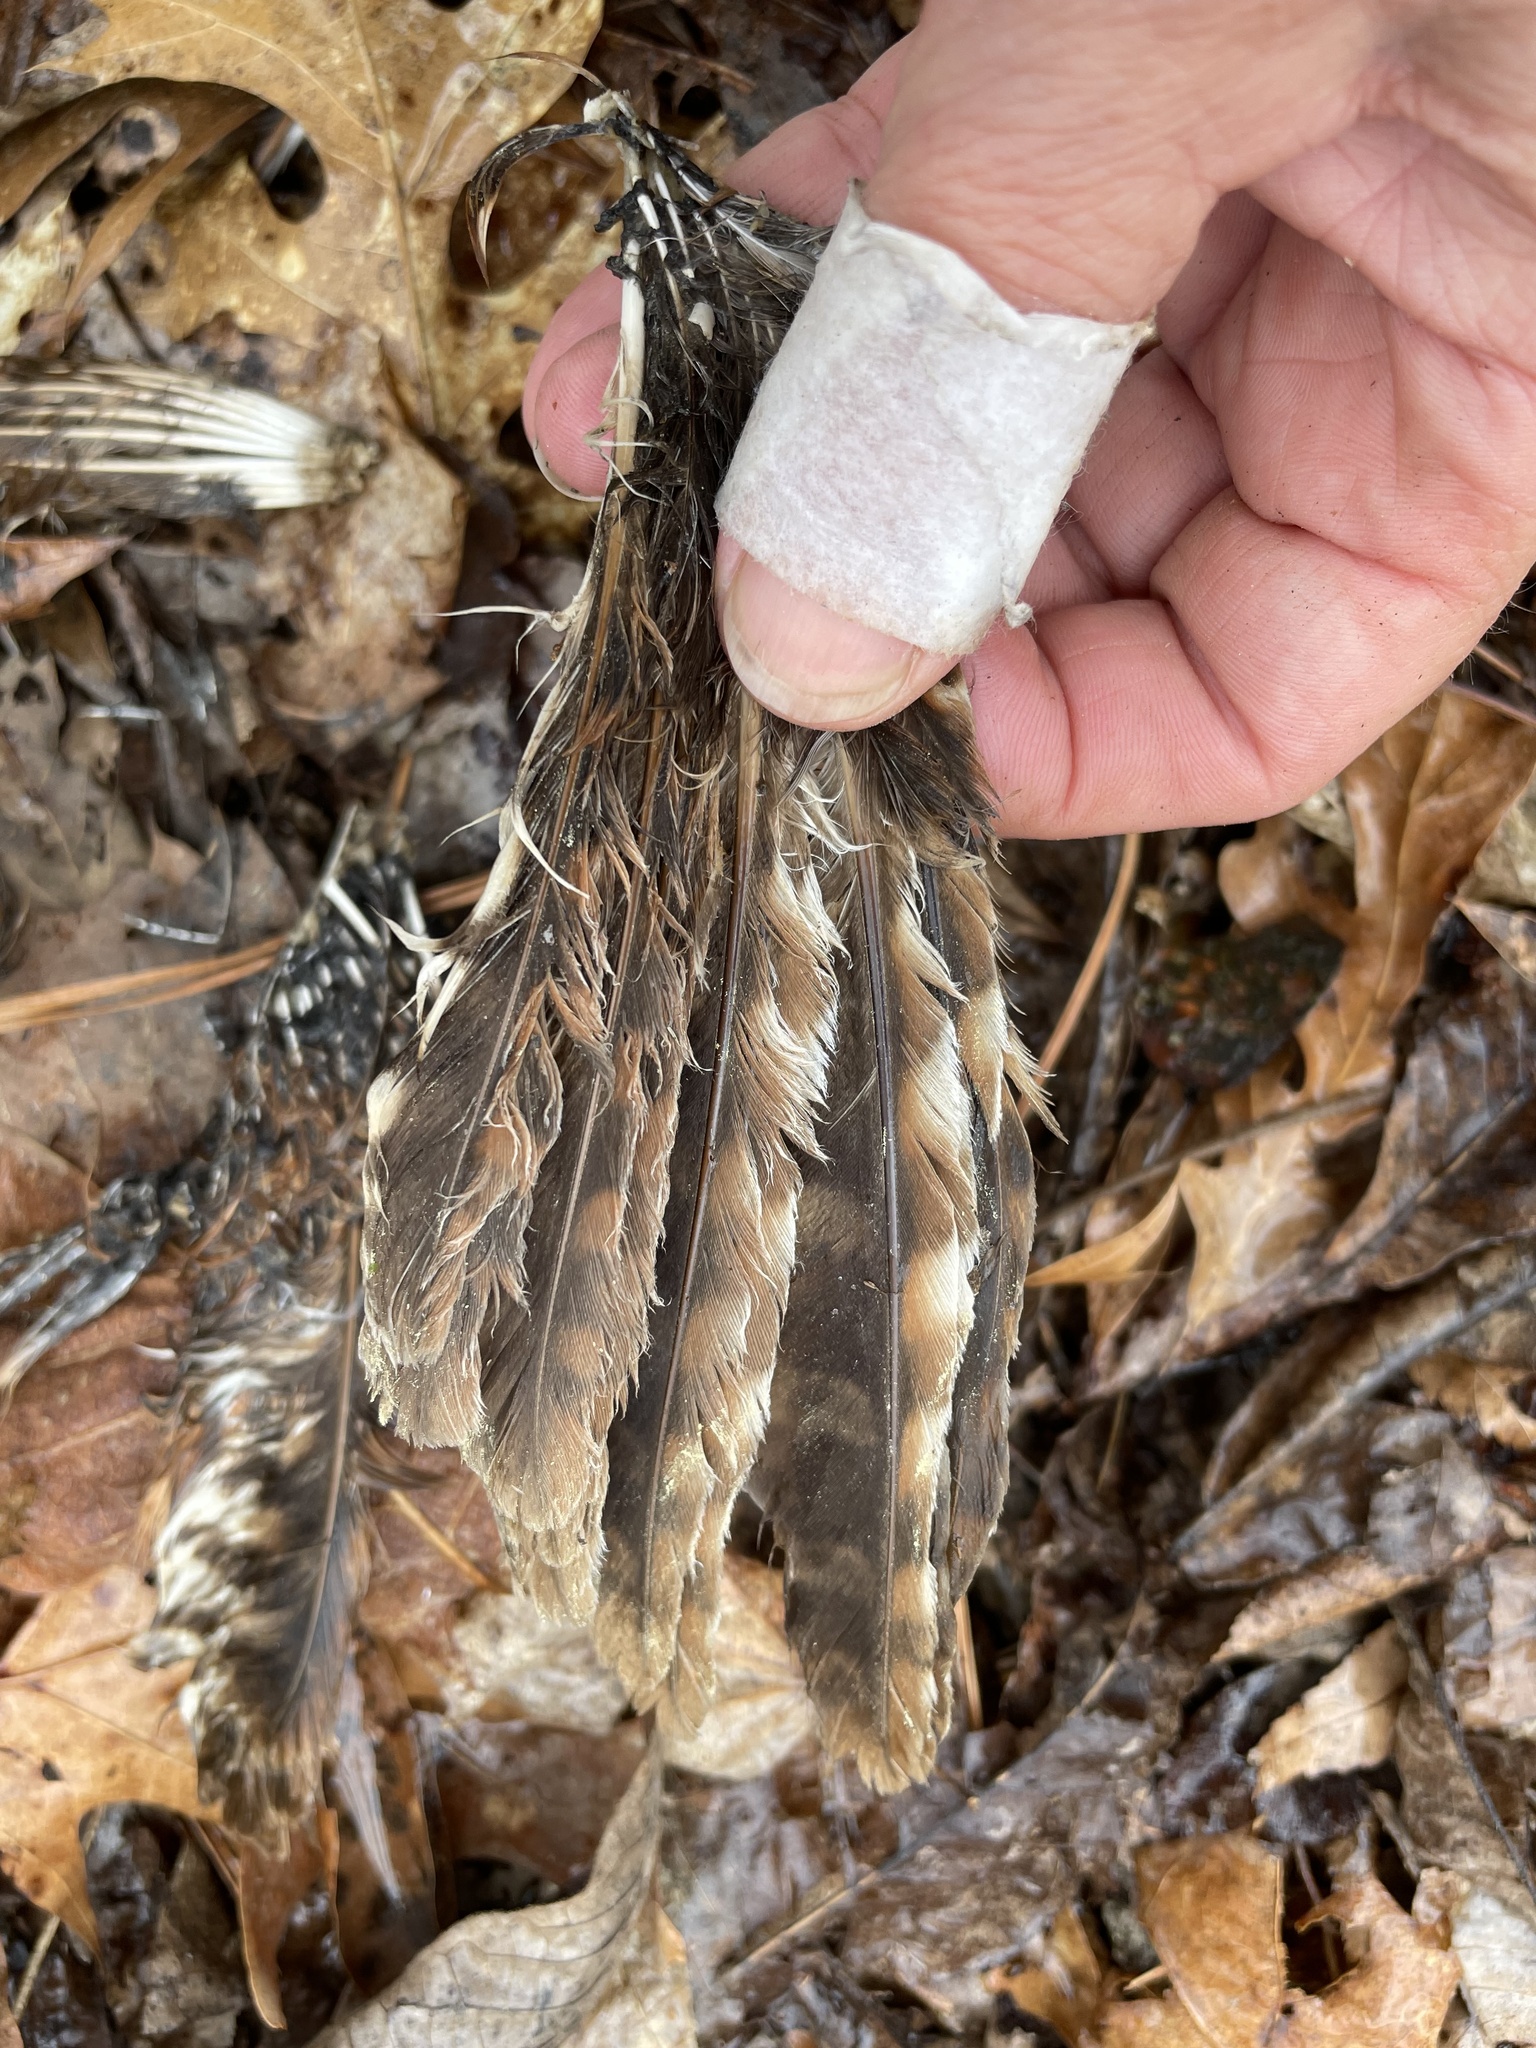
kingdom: Animalia
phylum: Chordata
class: Aves
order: Strigiformes
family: Strigidae
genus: Megascops
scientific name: Megascops asio
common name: Eastern screech-owl
